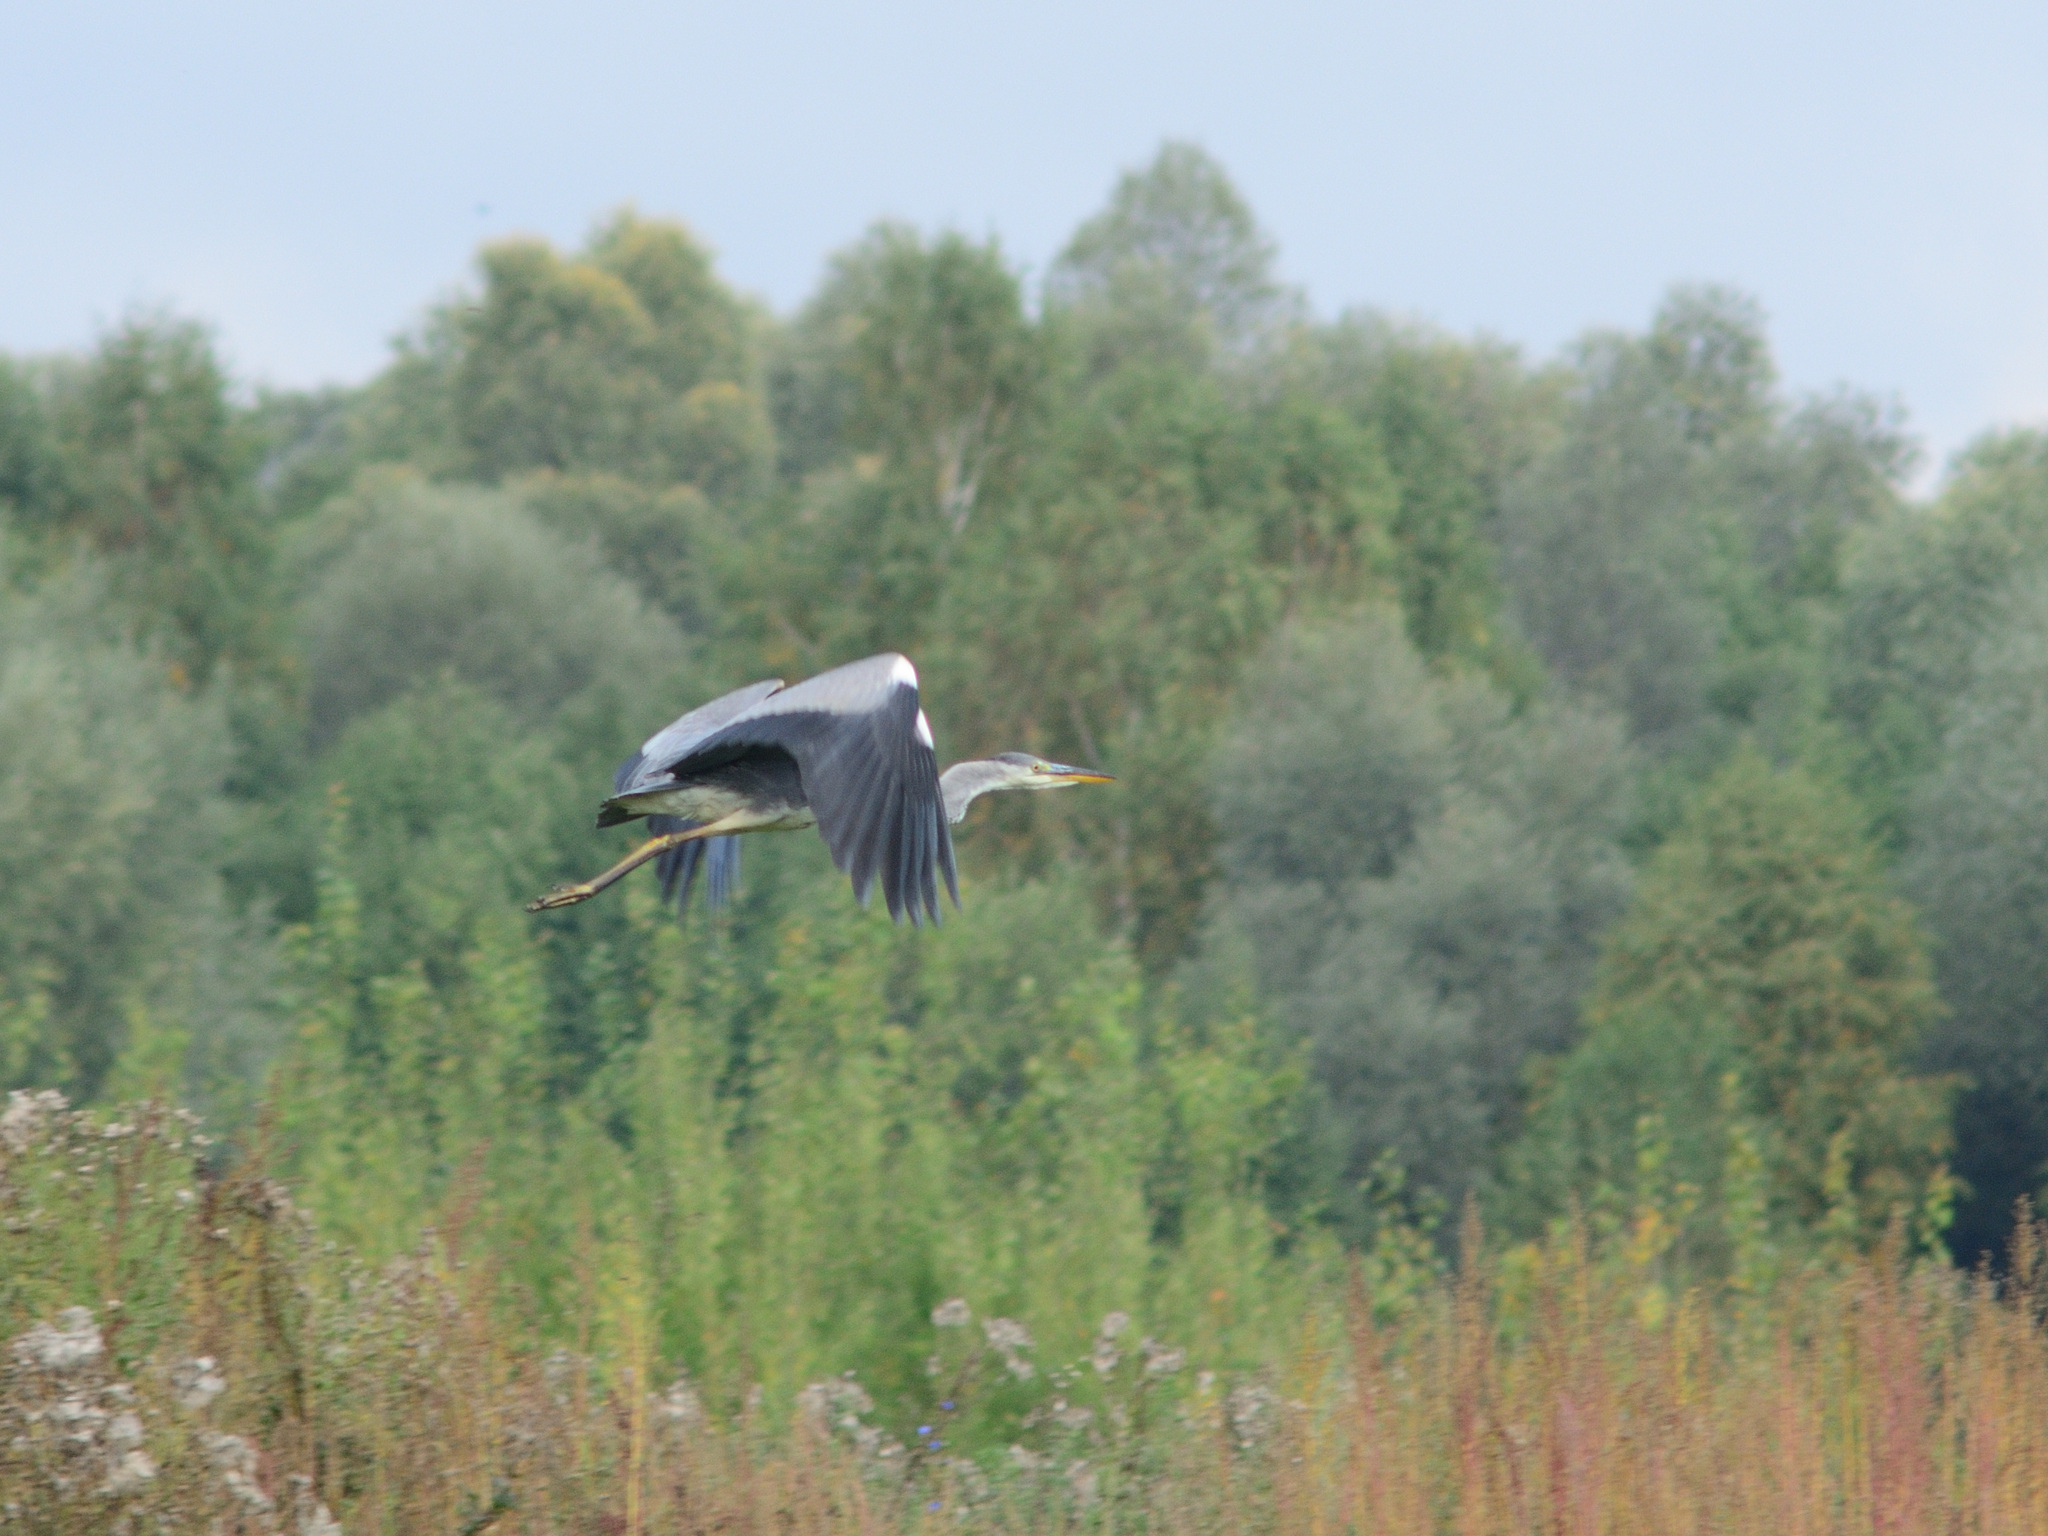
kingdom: Animalia
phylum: Chordata
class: Aves
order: Pelecaniformes
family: Ardeidae
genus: Ardea
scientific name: Ardea cinerea
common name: Grey heron
